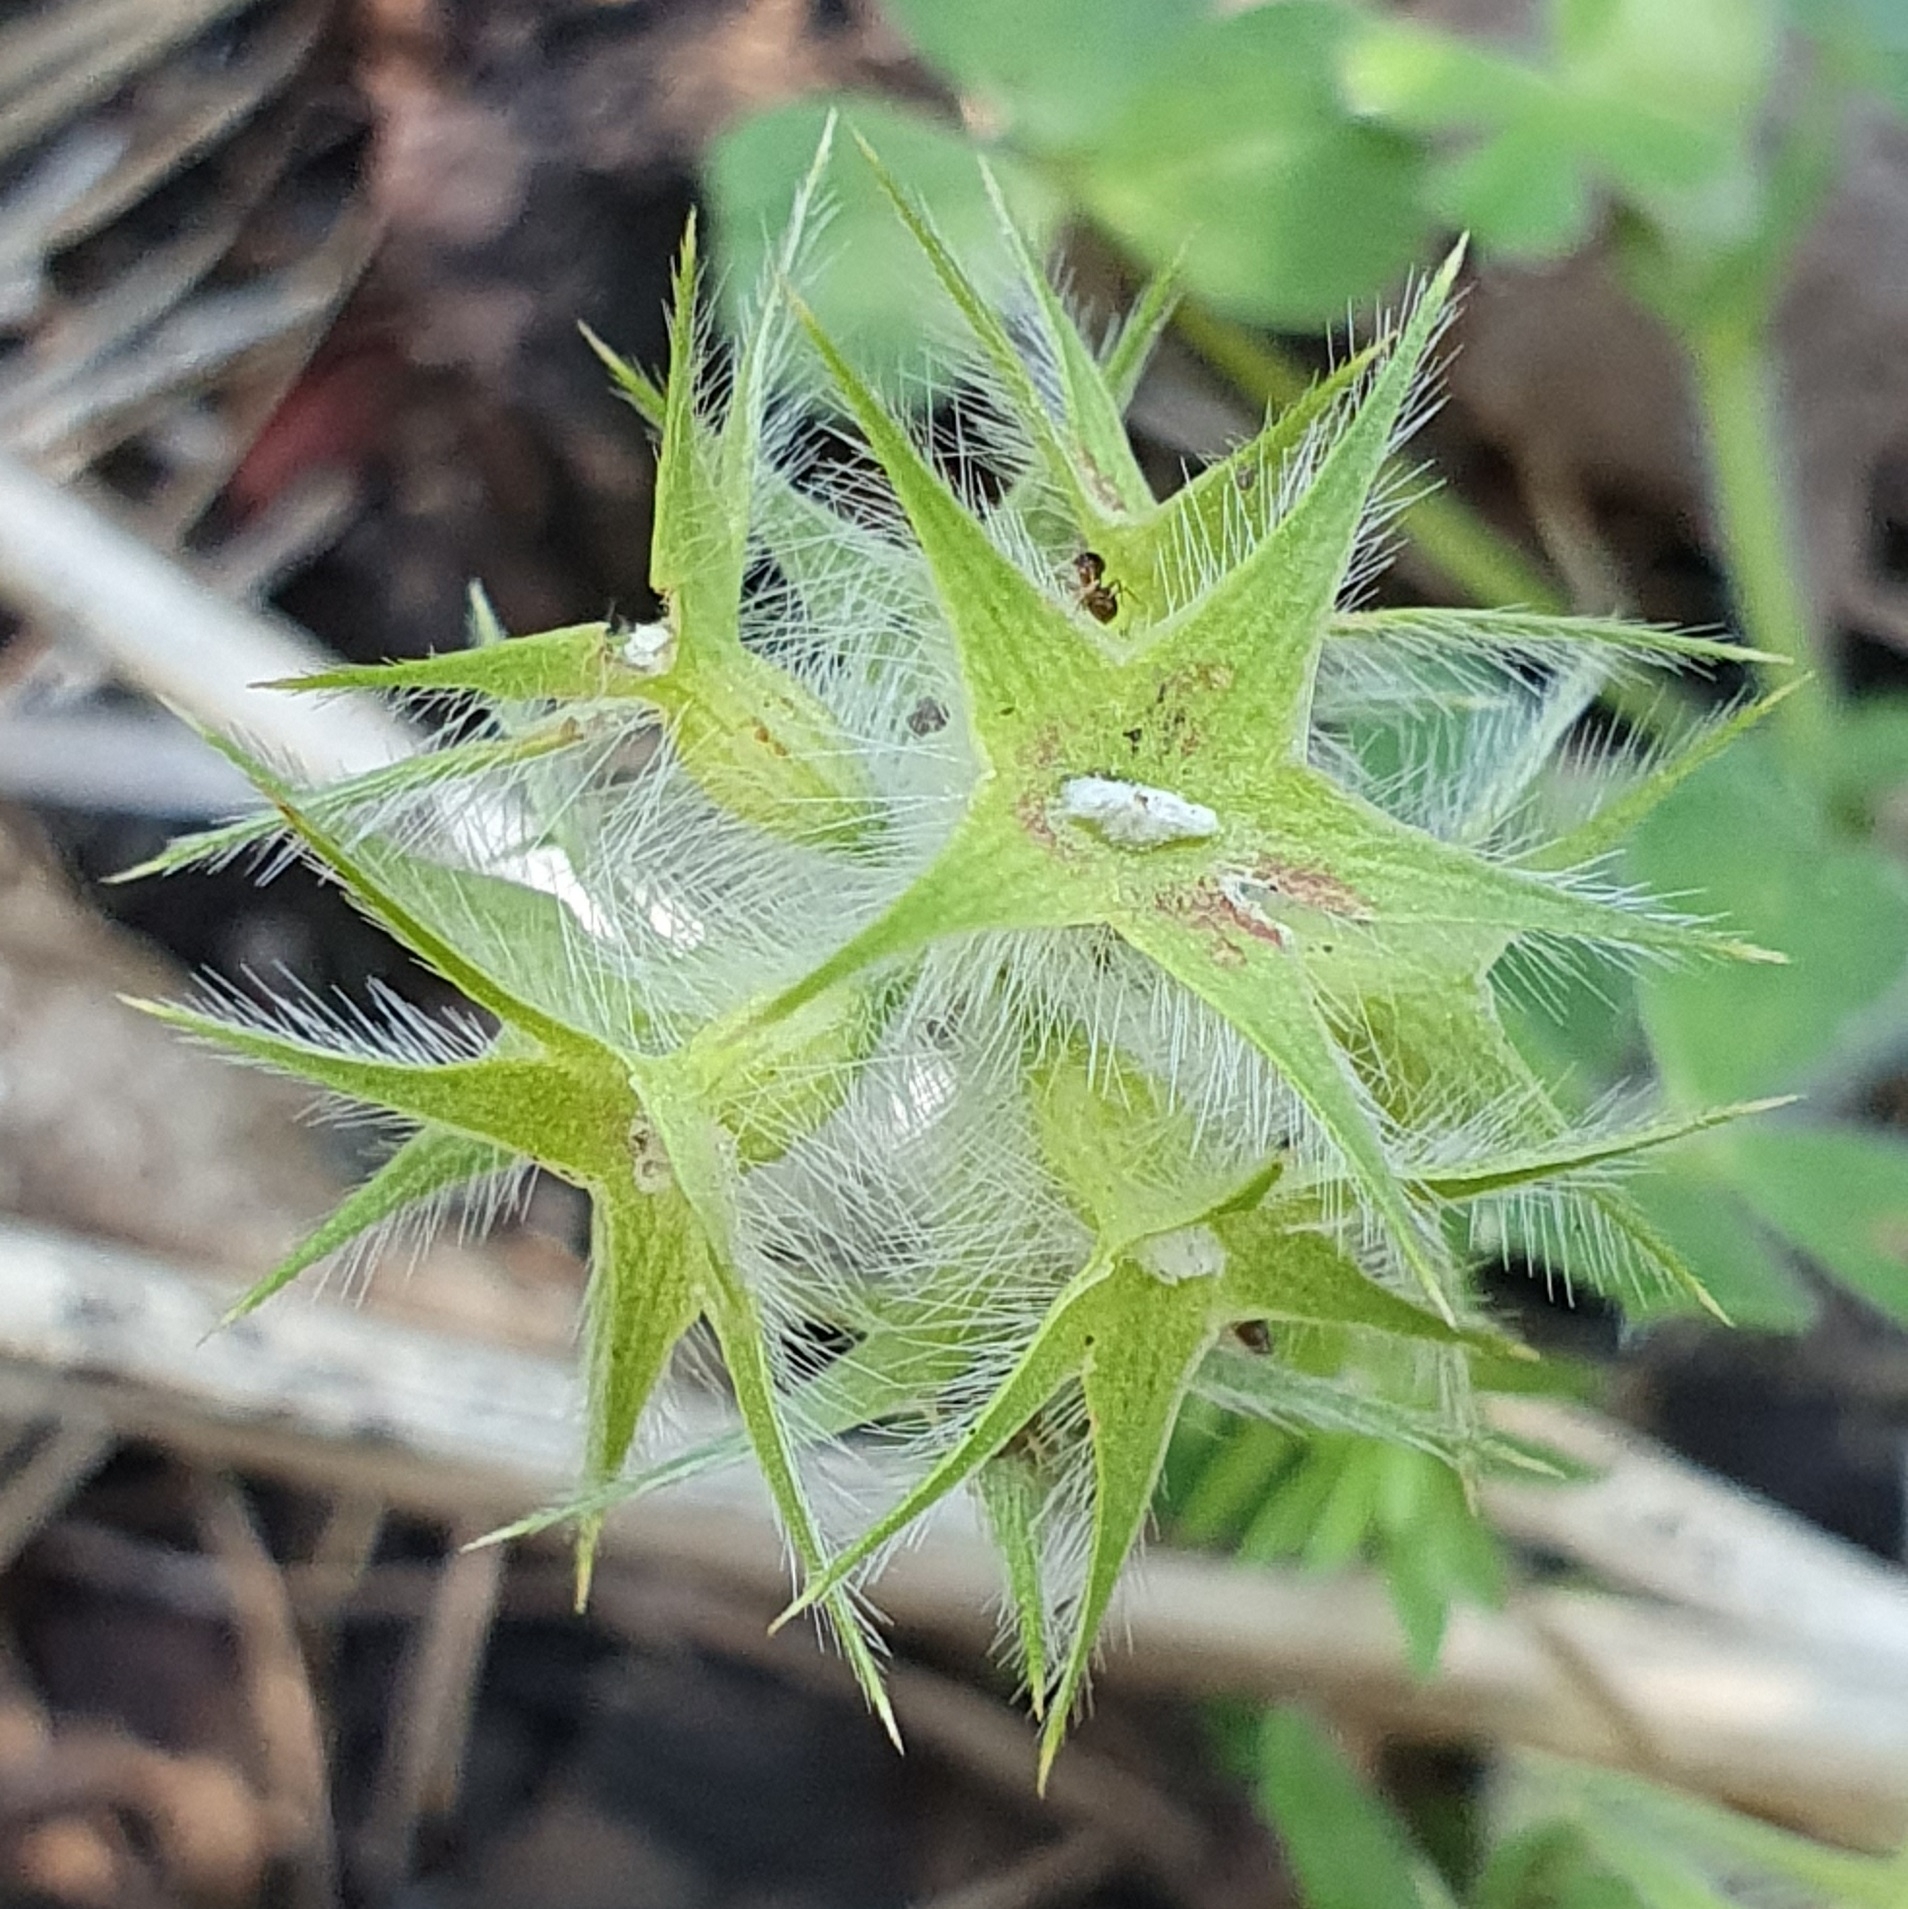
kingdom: Plantae
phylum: Tracheophyta
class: Magnoliopsida
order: Fabales
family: Fabaceae
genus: Trifolium
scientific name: Trifolium stellatum
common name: Starry clover
